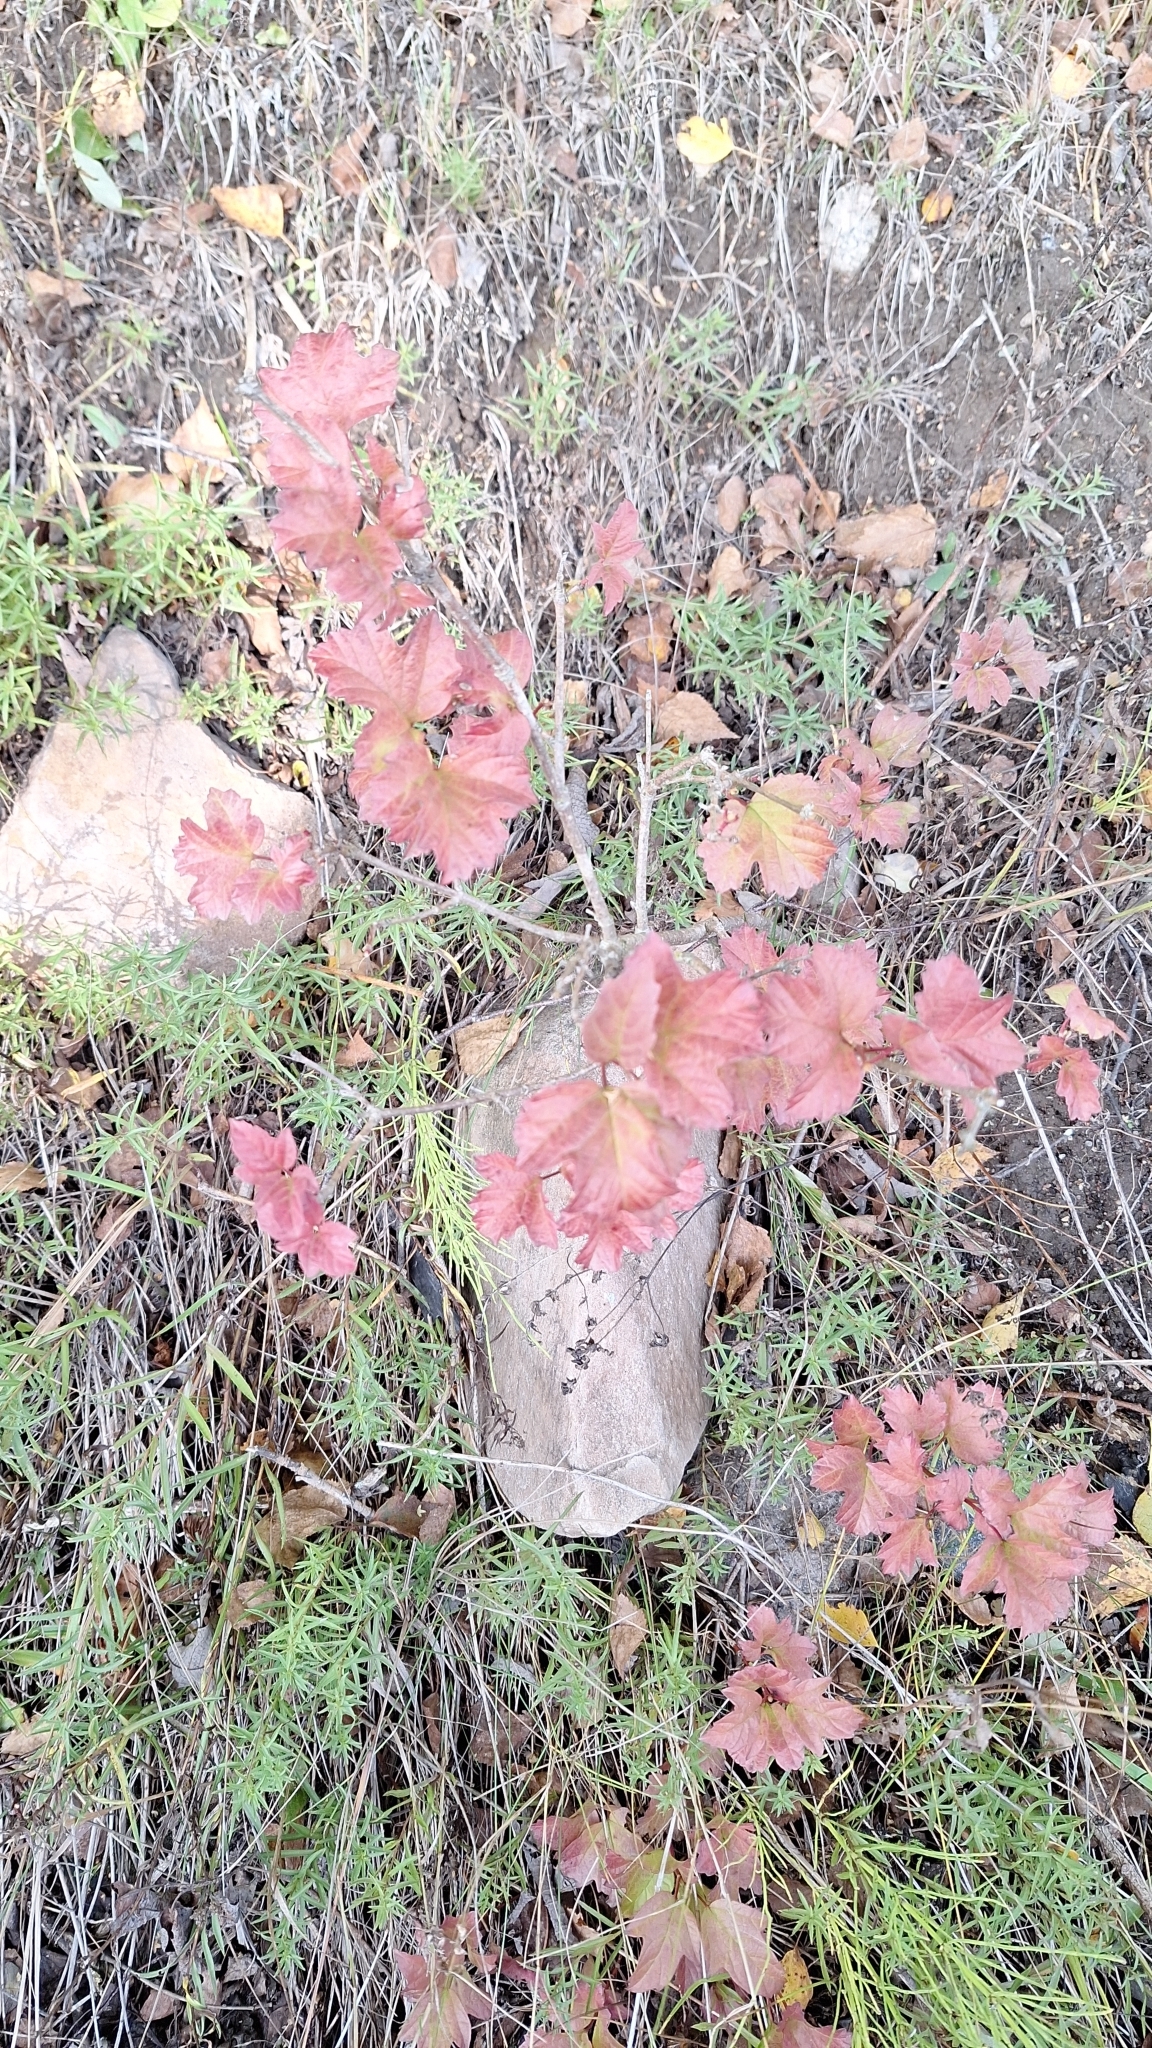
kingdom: Plantae
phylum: Tracheophyta
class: Magnoliopsida
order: Dipsacales
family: Viburnaceae
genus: Viburnum
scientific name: Viburnum opulus
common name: Guelder-rose
